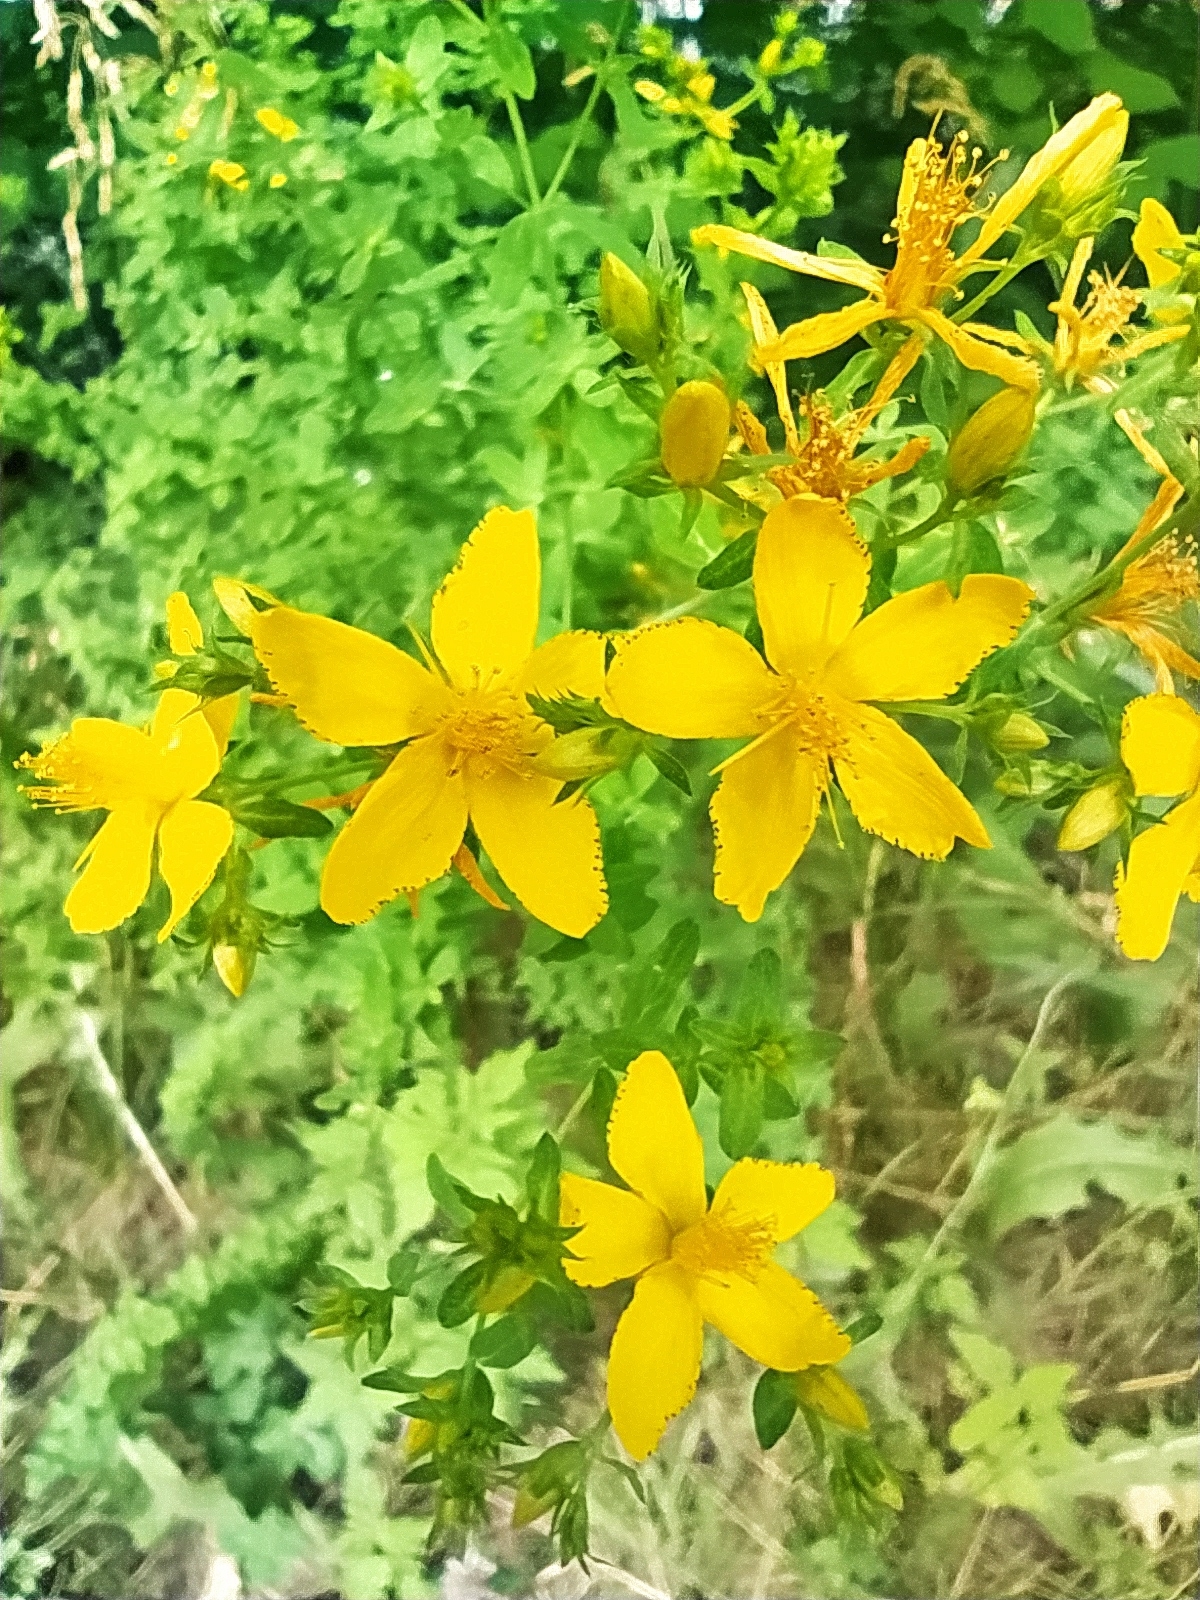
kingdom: Plantae
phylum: Tracheophyta
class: Magnoliopsida
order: Malpighiales
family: Hypericaceae
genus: Hypericum
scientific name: Hypericum perforatum
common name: Common st. johnswort
